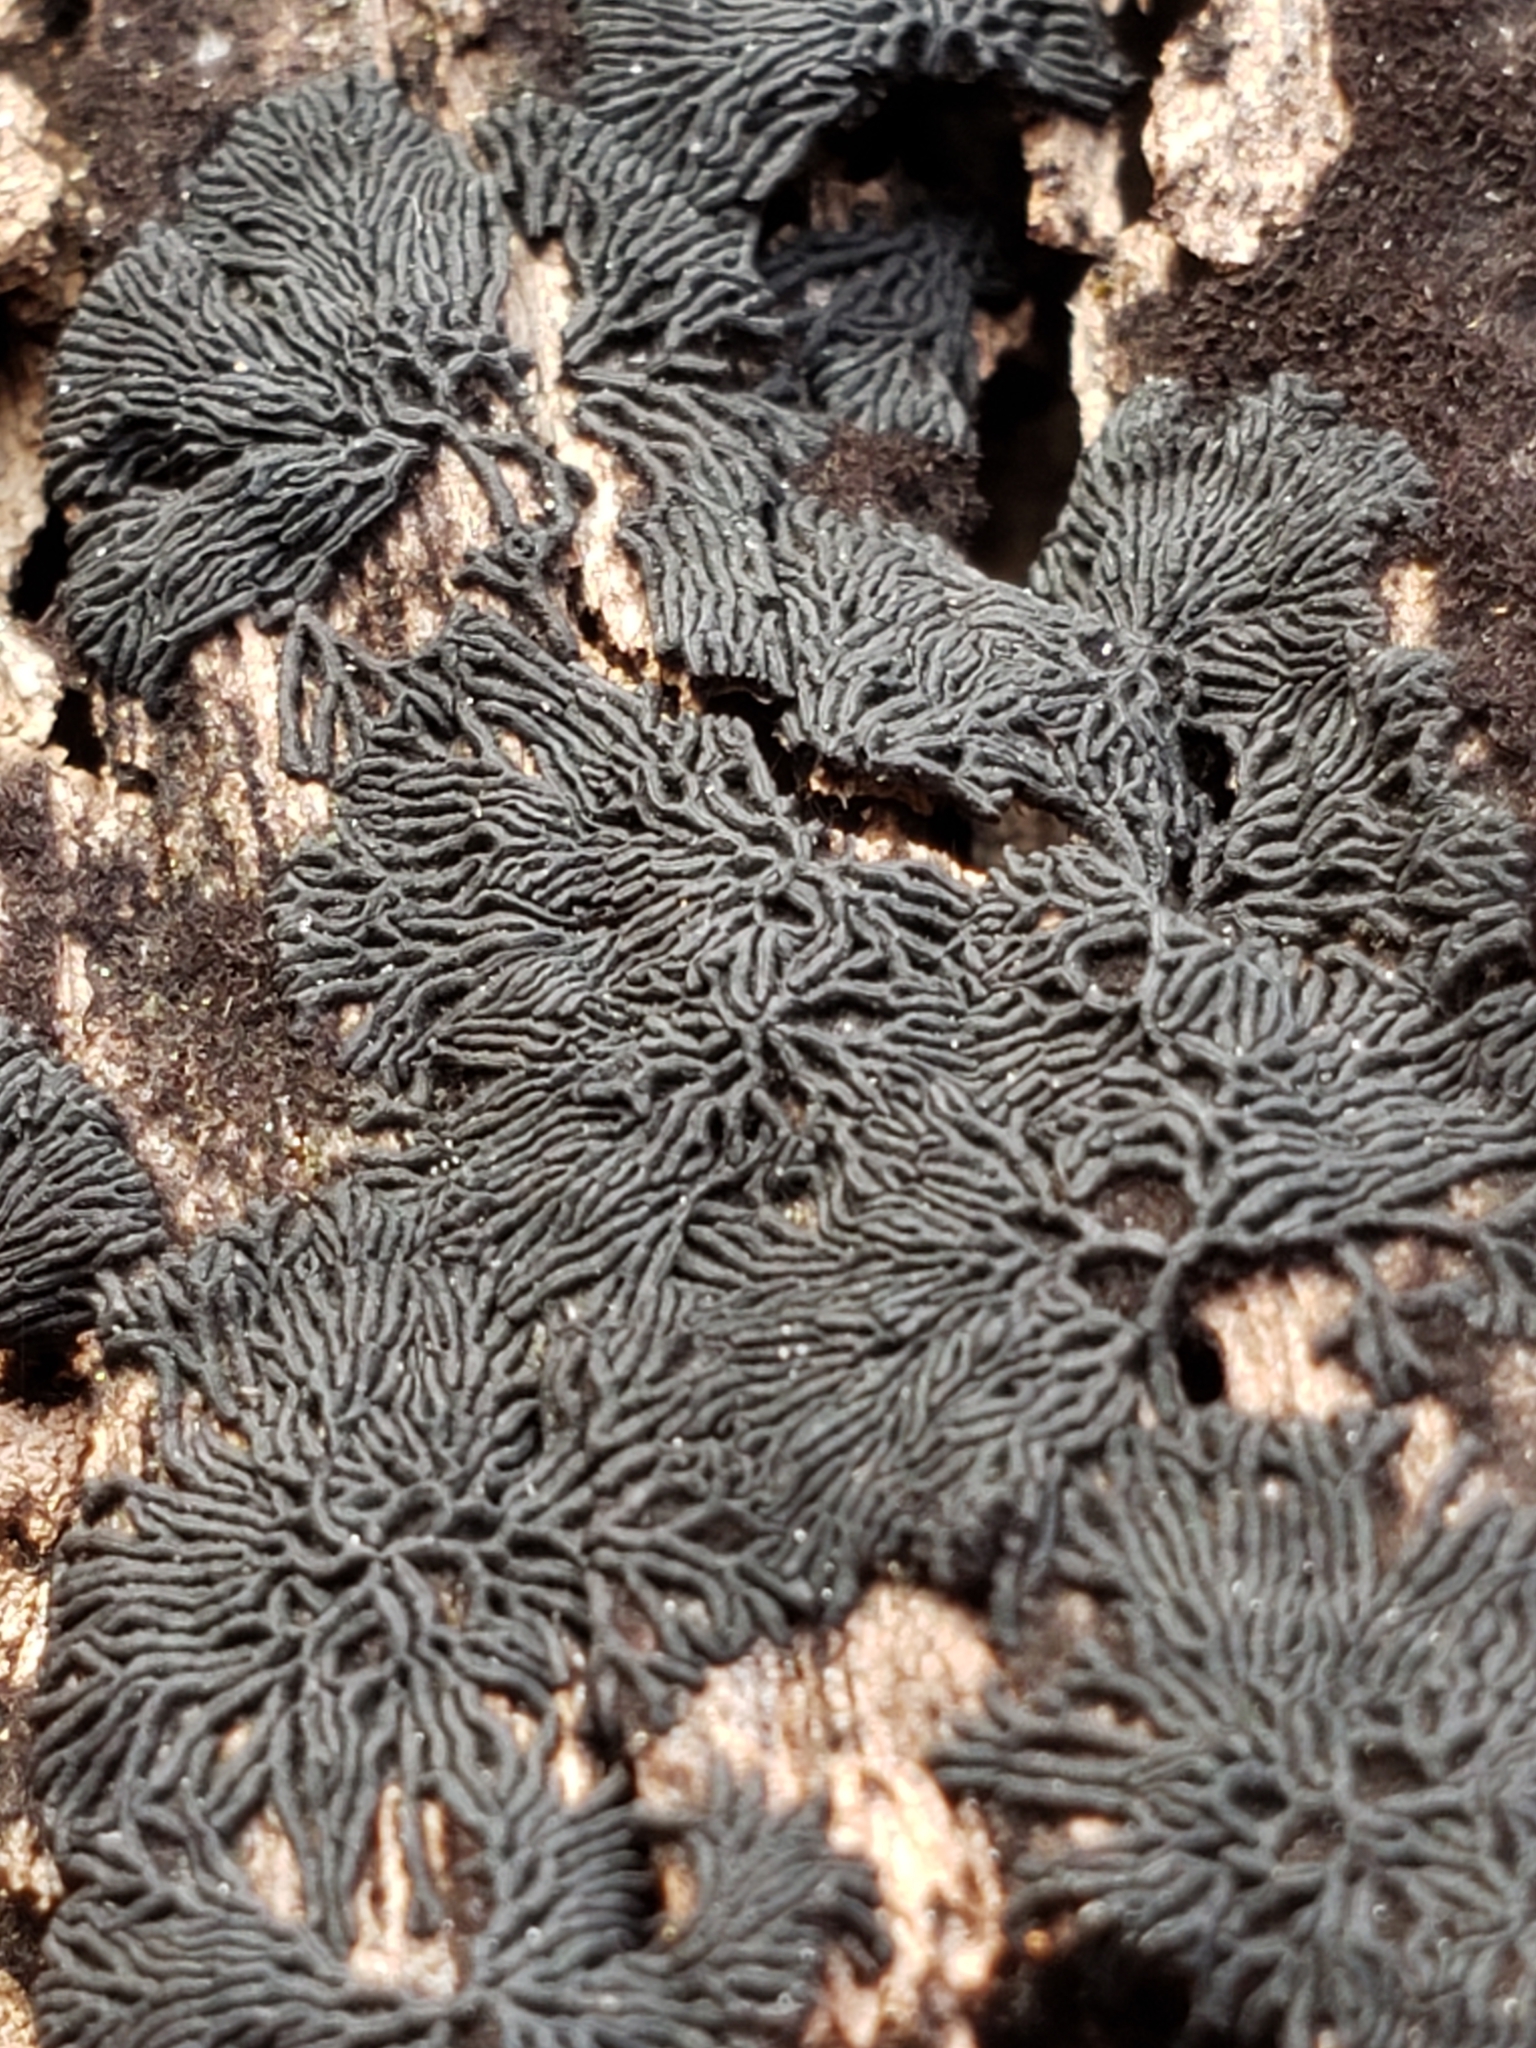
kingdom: Fungi
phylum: Ascomycota
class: Dothideomycetes
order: Mytilinidiales
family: Gloniaceae
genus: Glonium
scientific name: Glonium stellatum
